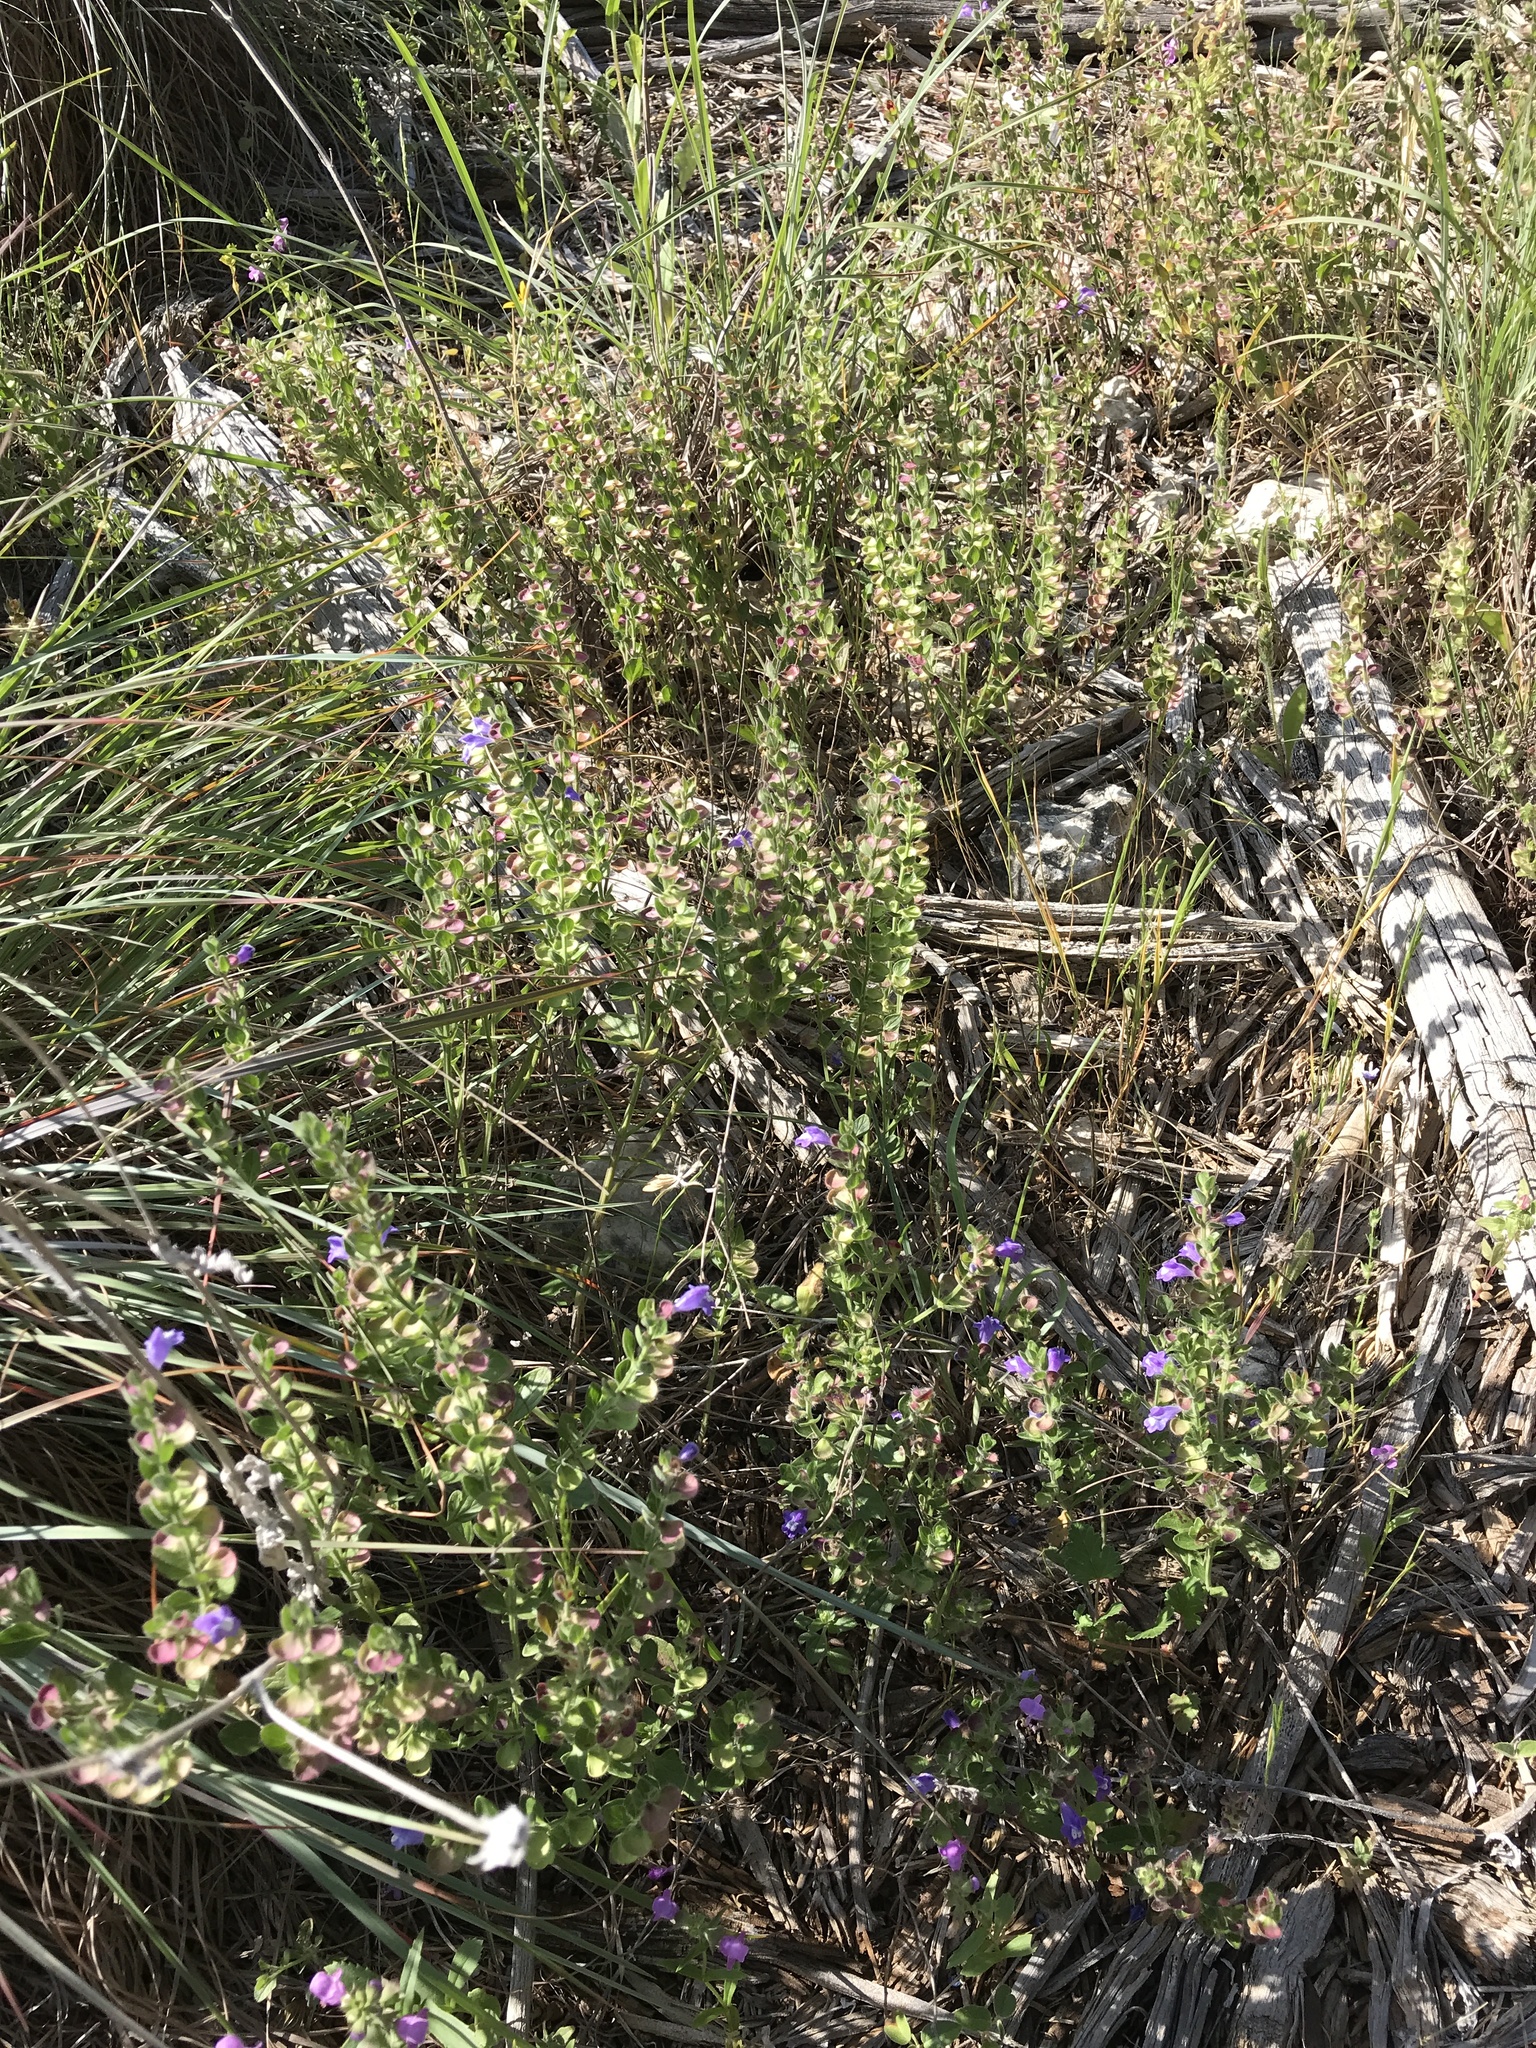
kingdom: Plantae
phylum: Tracheophyta
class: Magnoliopsida
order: Lamiales
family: Lamiaceae
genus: Scutellaria
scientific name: Scutellaria drummondii
